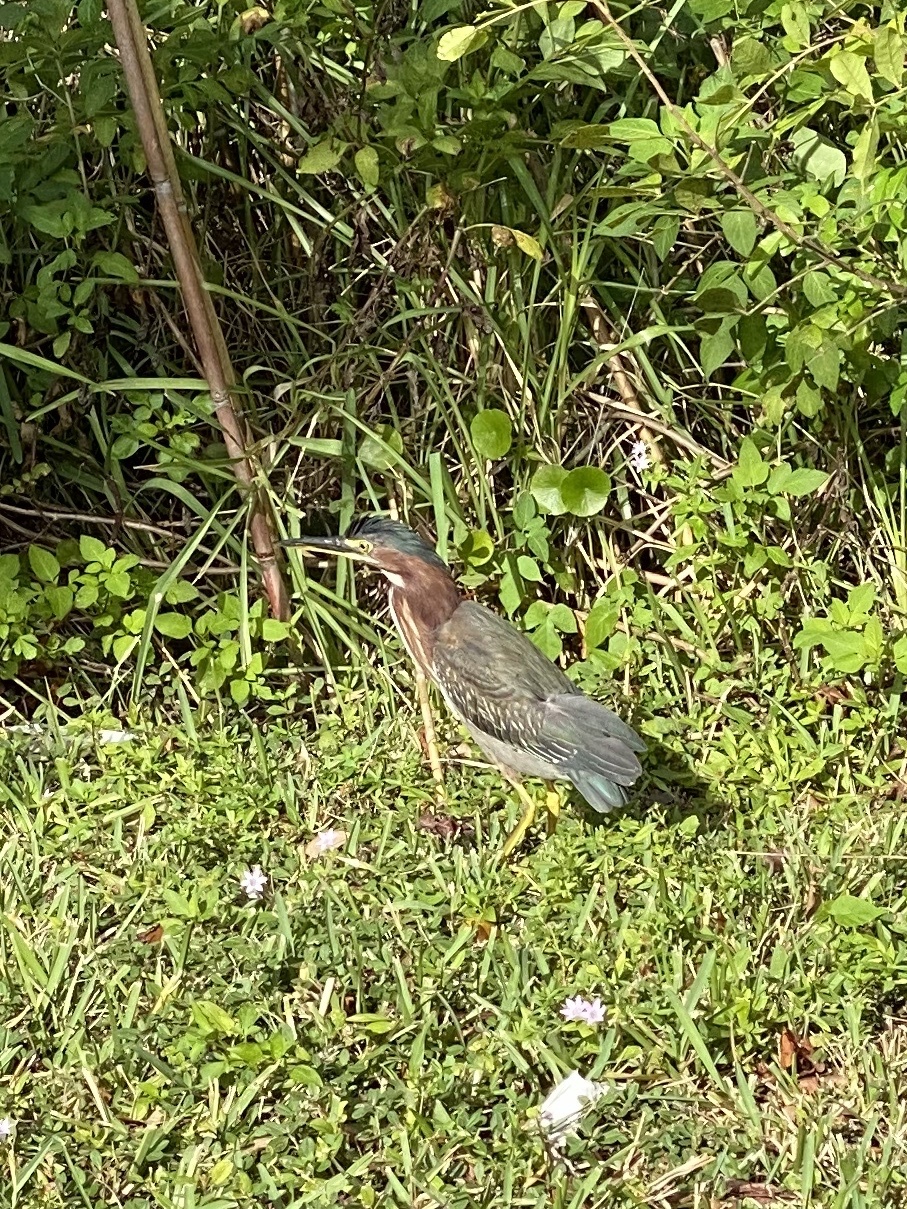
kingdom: Animalia
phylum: Chordata
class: Aves
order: Pelecaniformes
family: Ardeidae
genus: Butorides
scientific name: Butorides virescens
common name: Green heron
